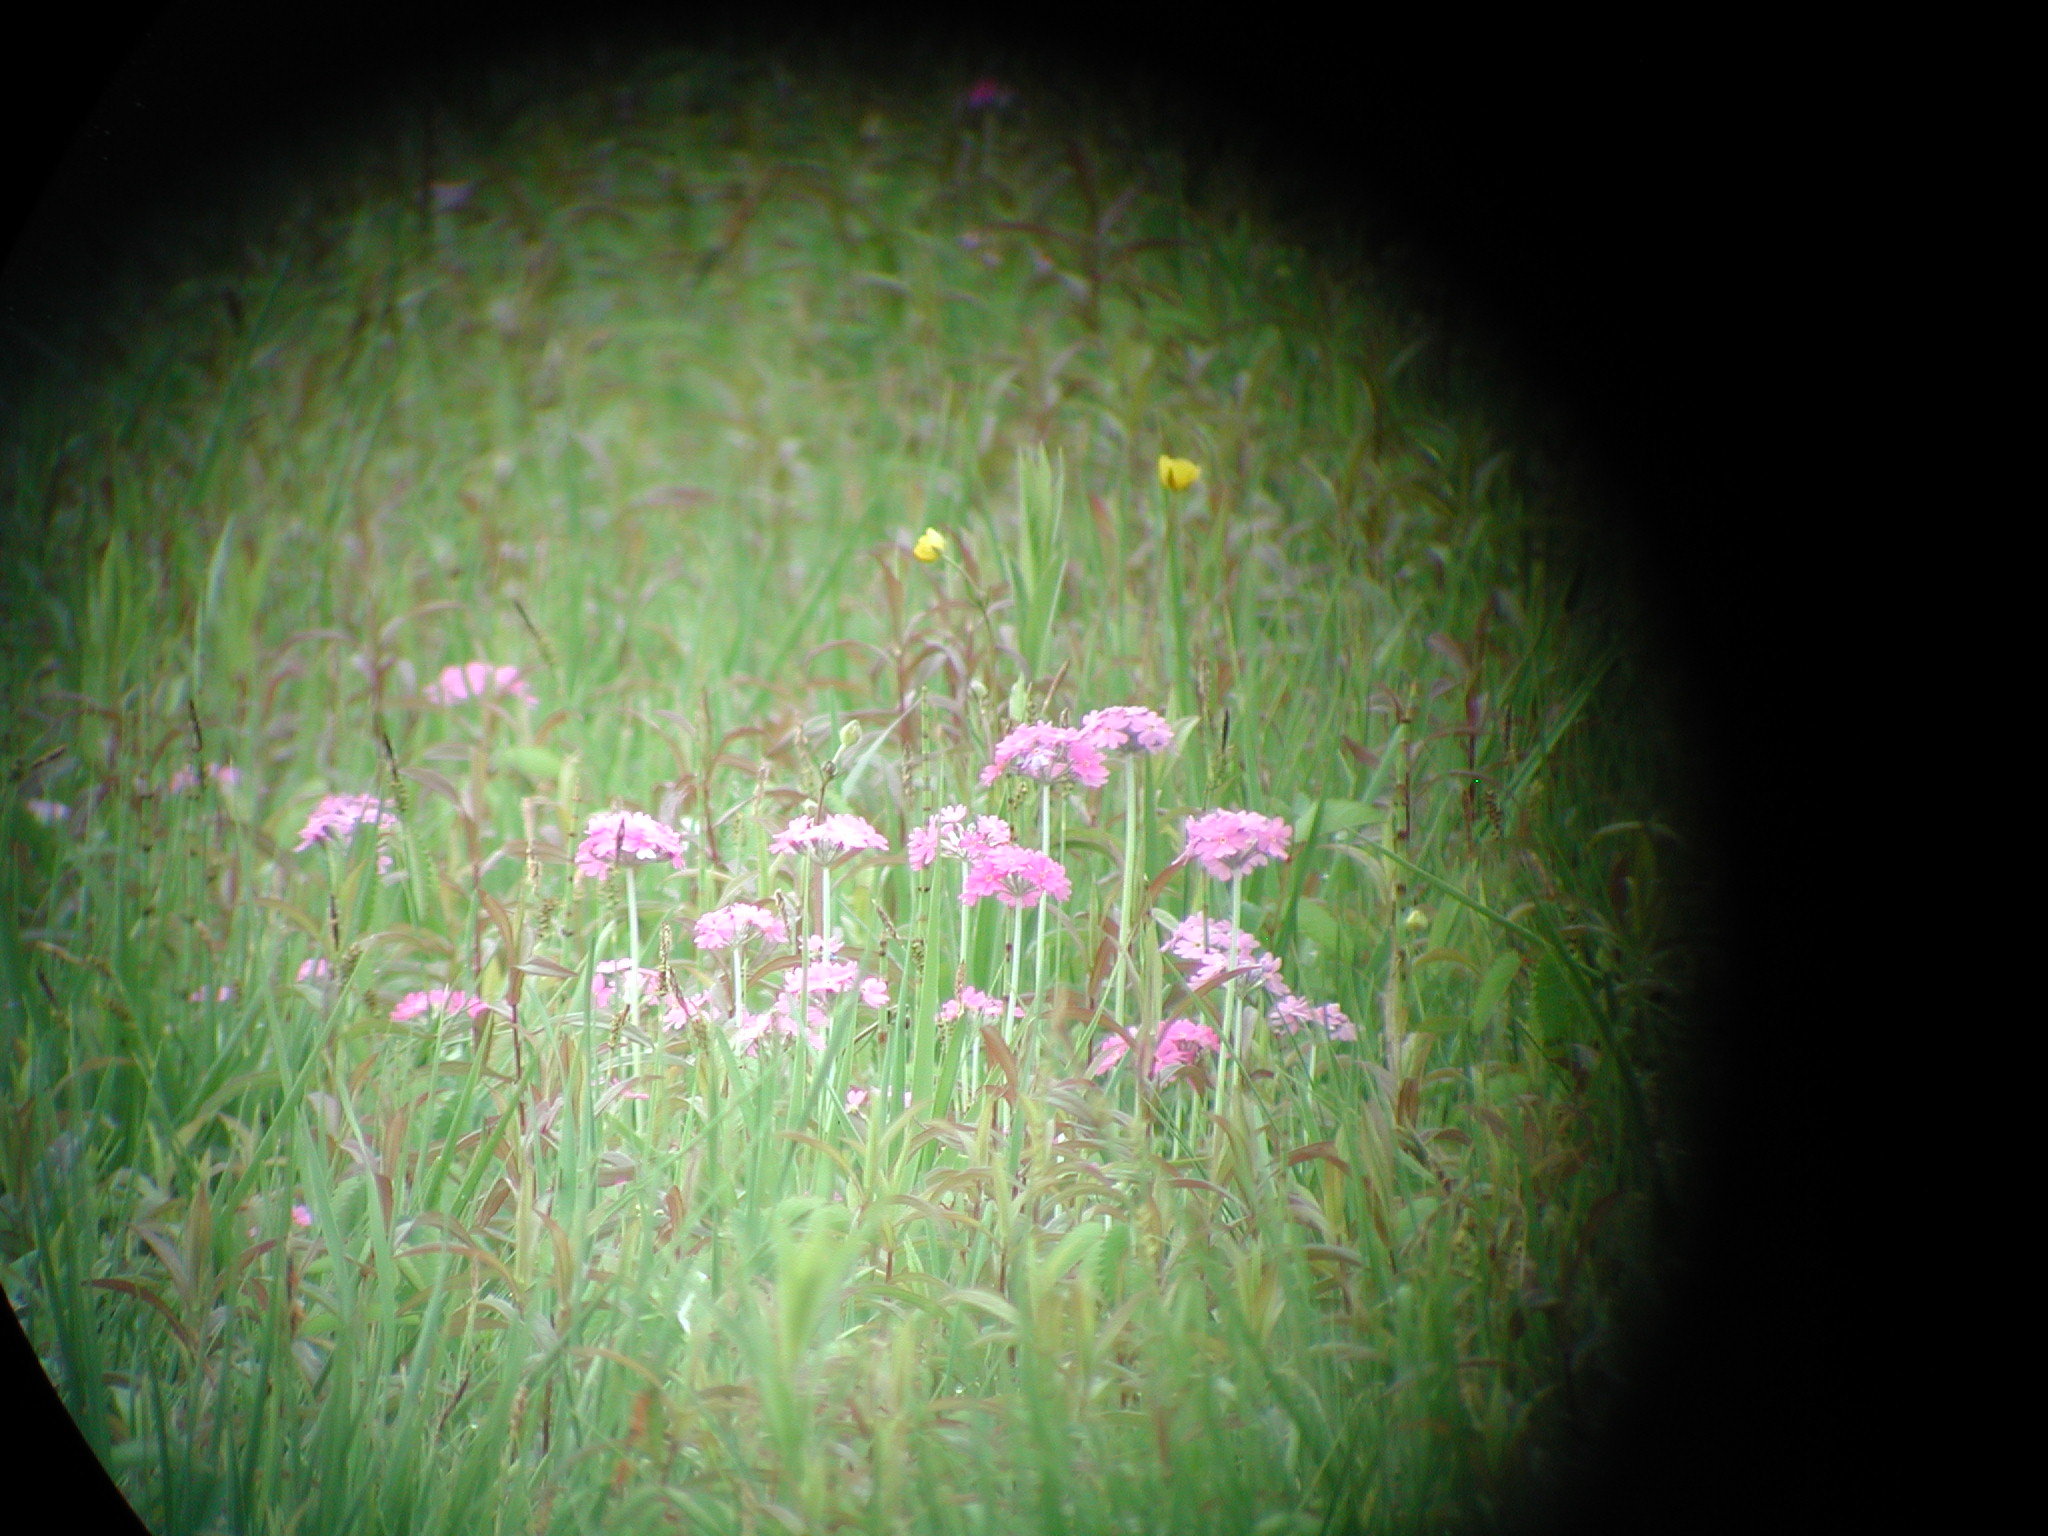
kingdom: Plantae
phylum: Tracheophyta
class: Magnoliopsida
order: Ericales
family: Primulaceae
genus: Primula
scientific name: Primula farinosa
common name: Bird's-eye primrose
